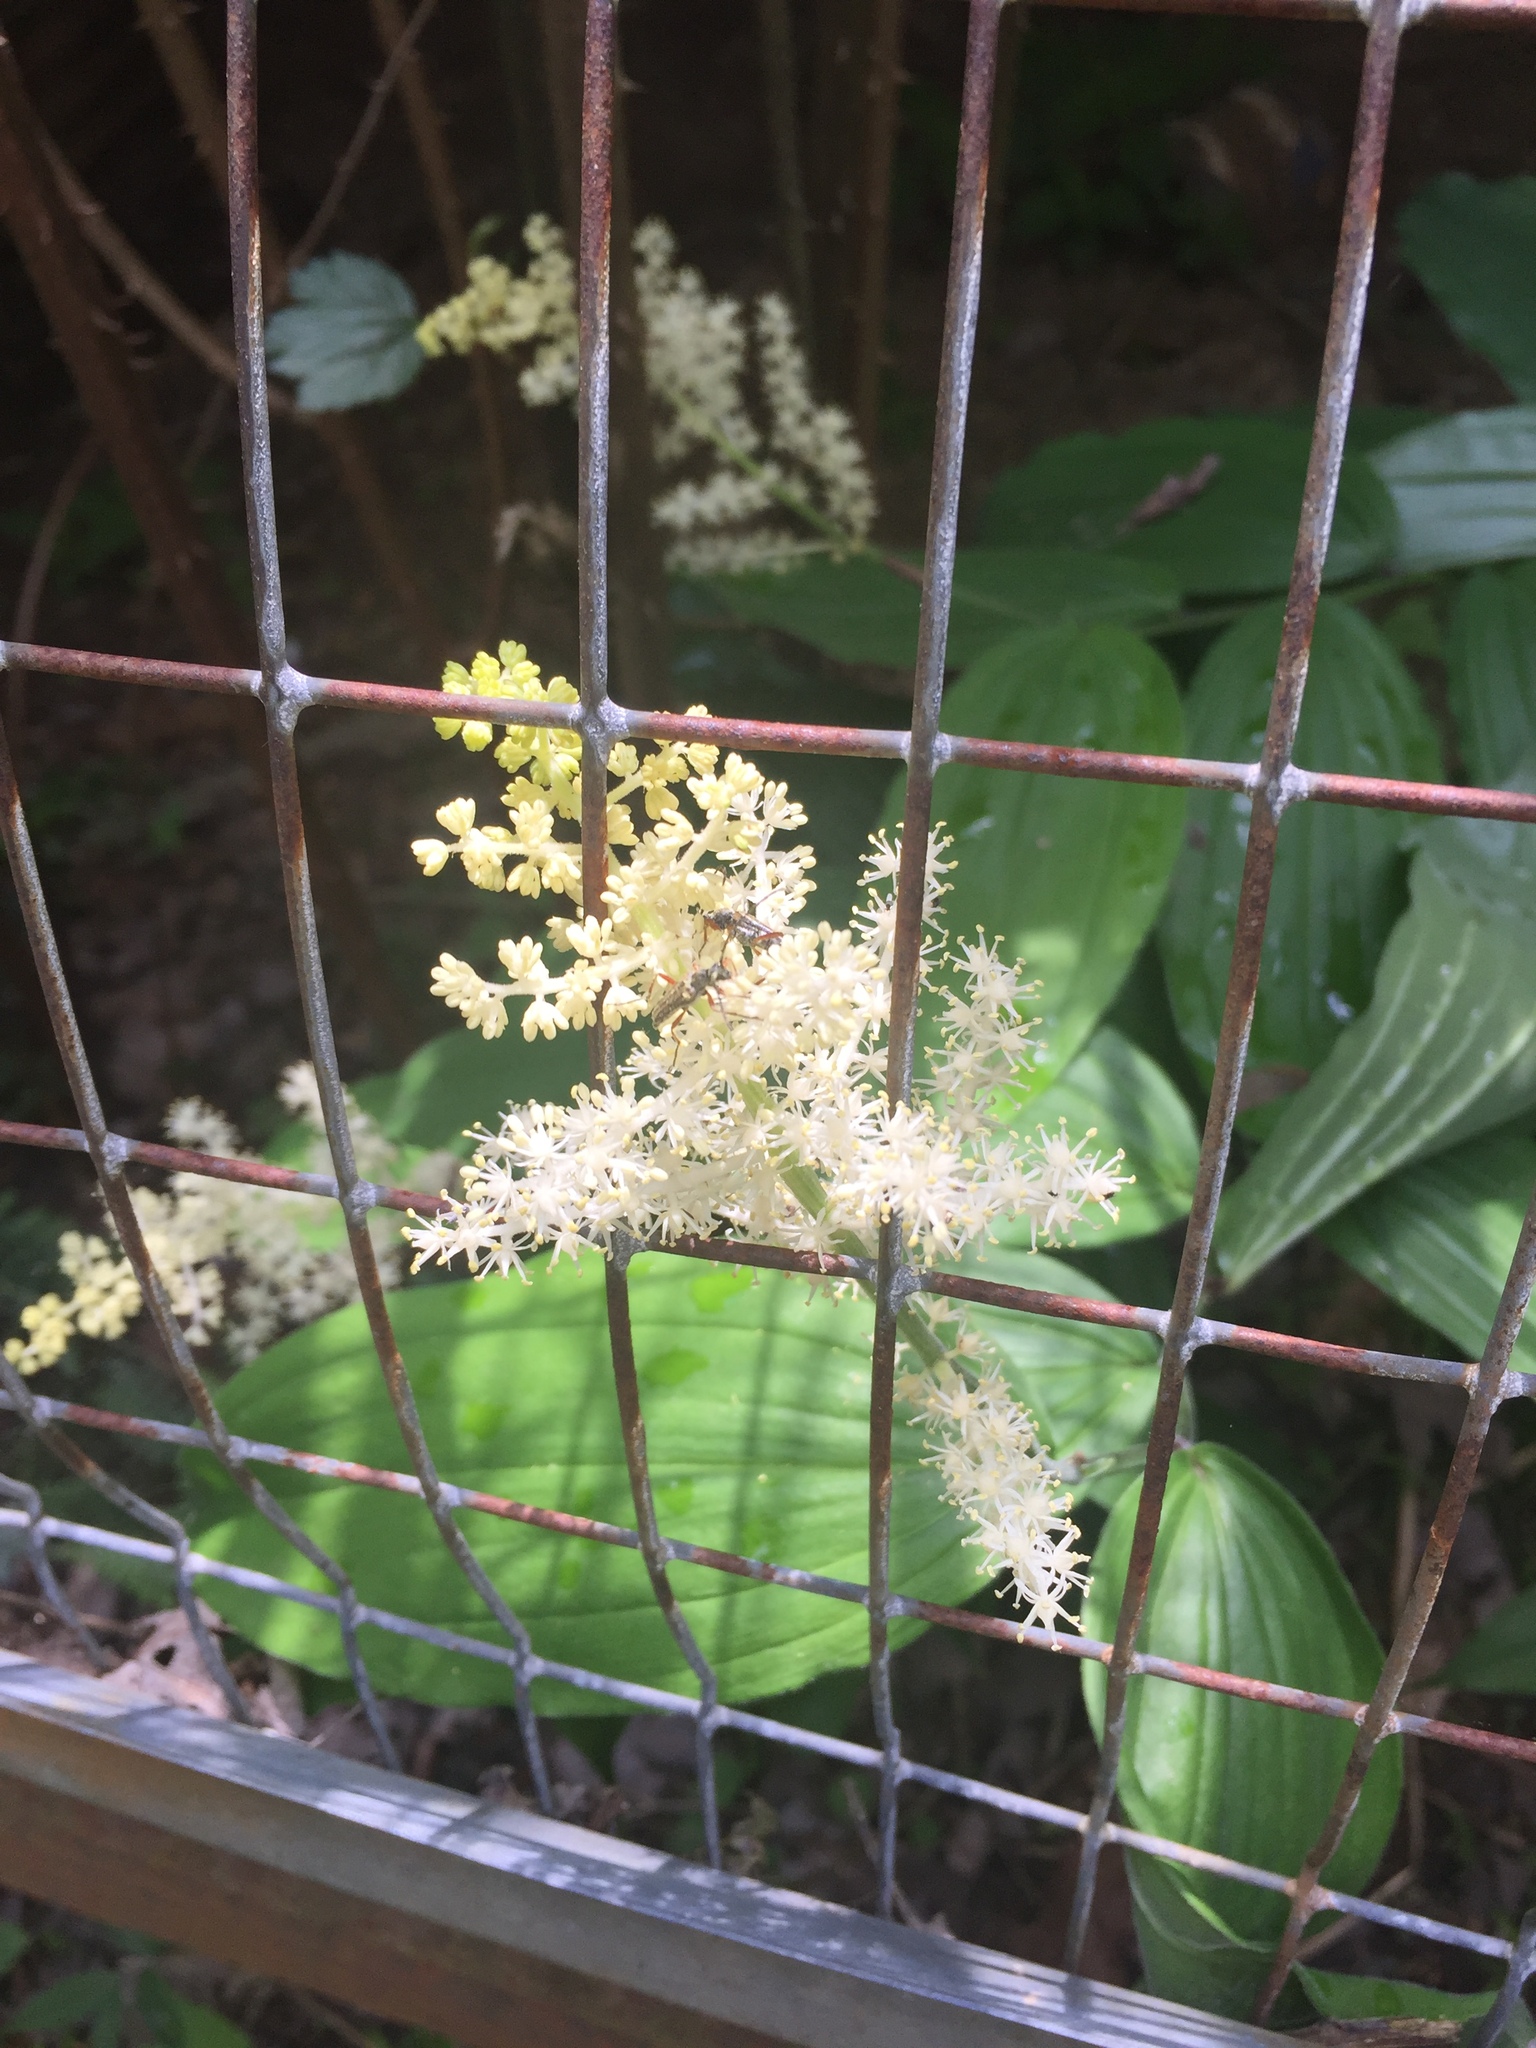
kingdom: Plantae
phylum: Tracheophyta
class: Liliopsida
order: Asparagales
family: Asparagaceae
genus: Maianthemum
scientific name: Maianthemum racemosum
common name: False spikenard
